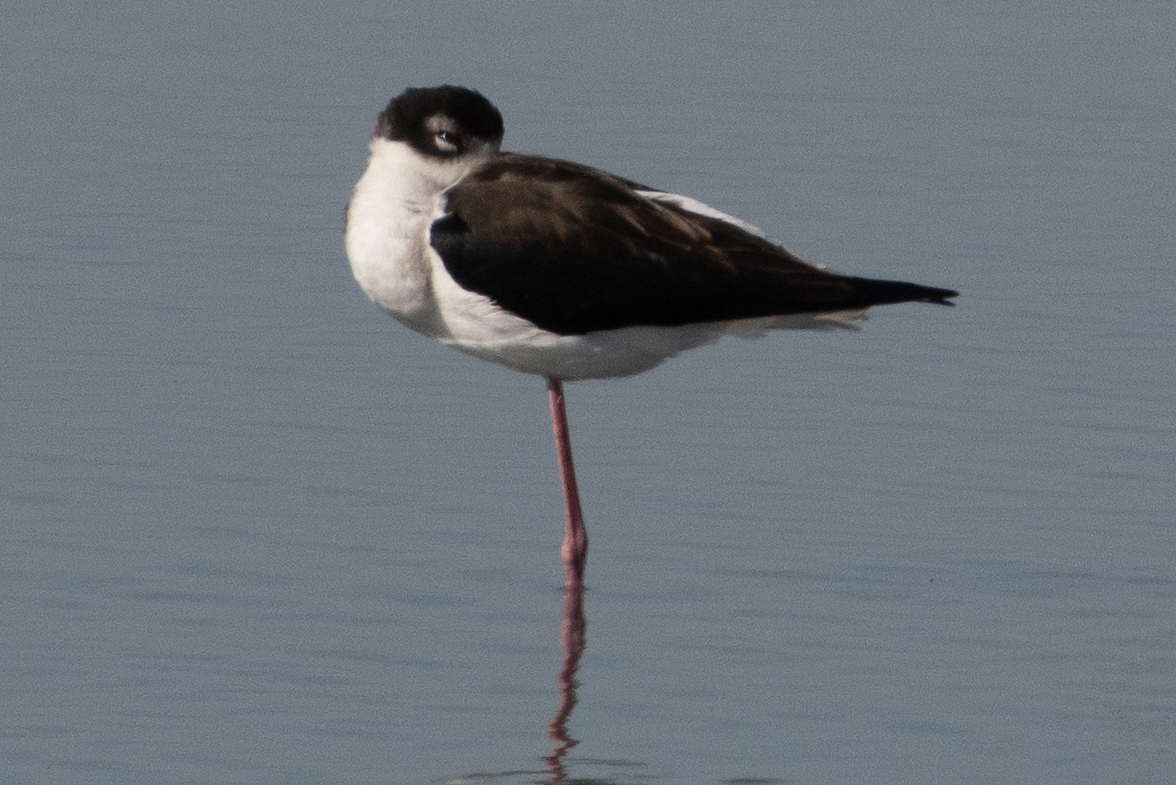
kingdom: Animalia
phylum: Chordata
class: Aves
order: Charadriiformes
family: Recurvirostridae
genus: Himantopus
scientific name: Himantopus mexicanus
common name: Black-necked stilt
